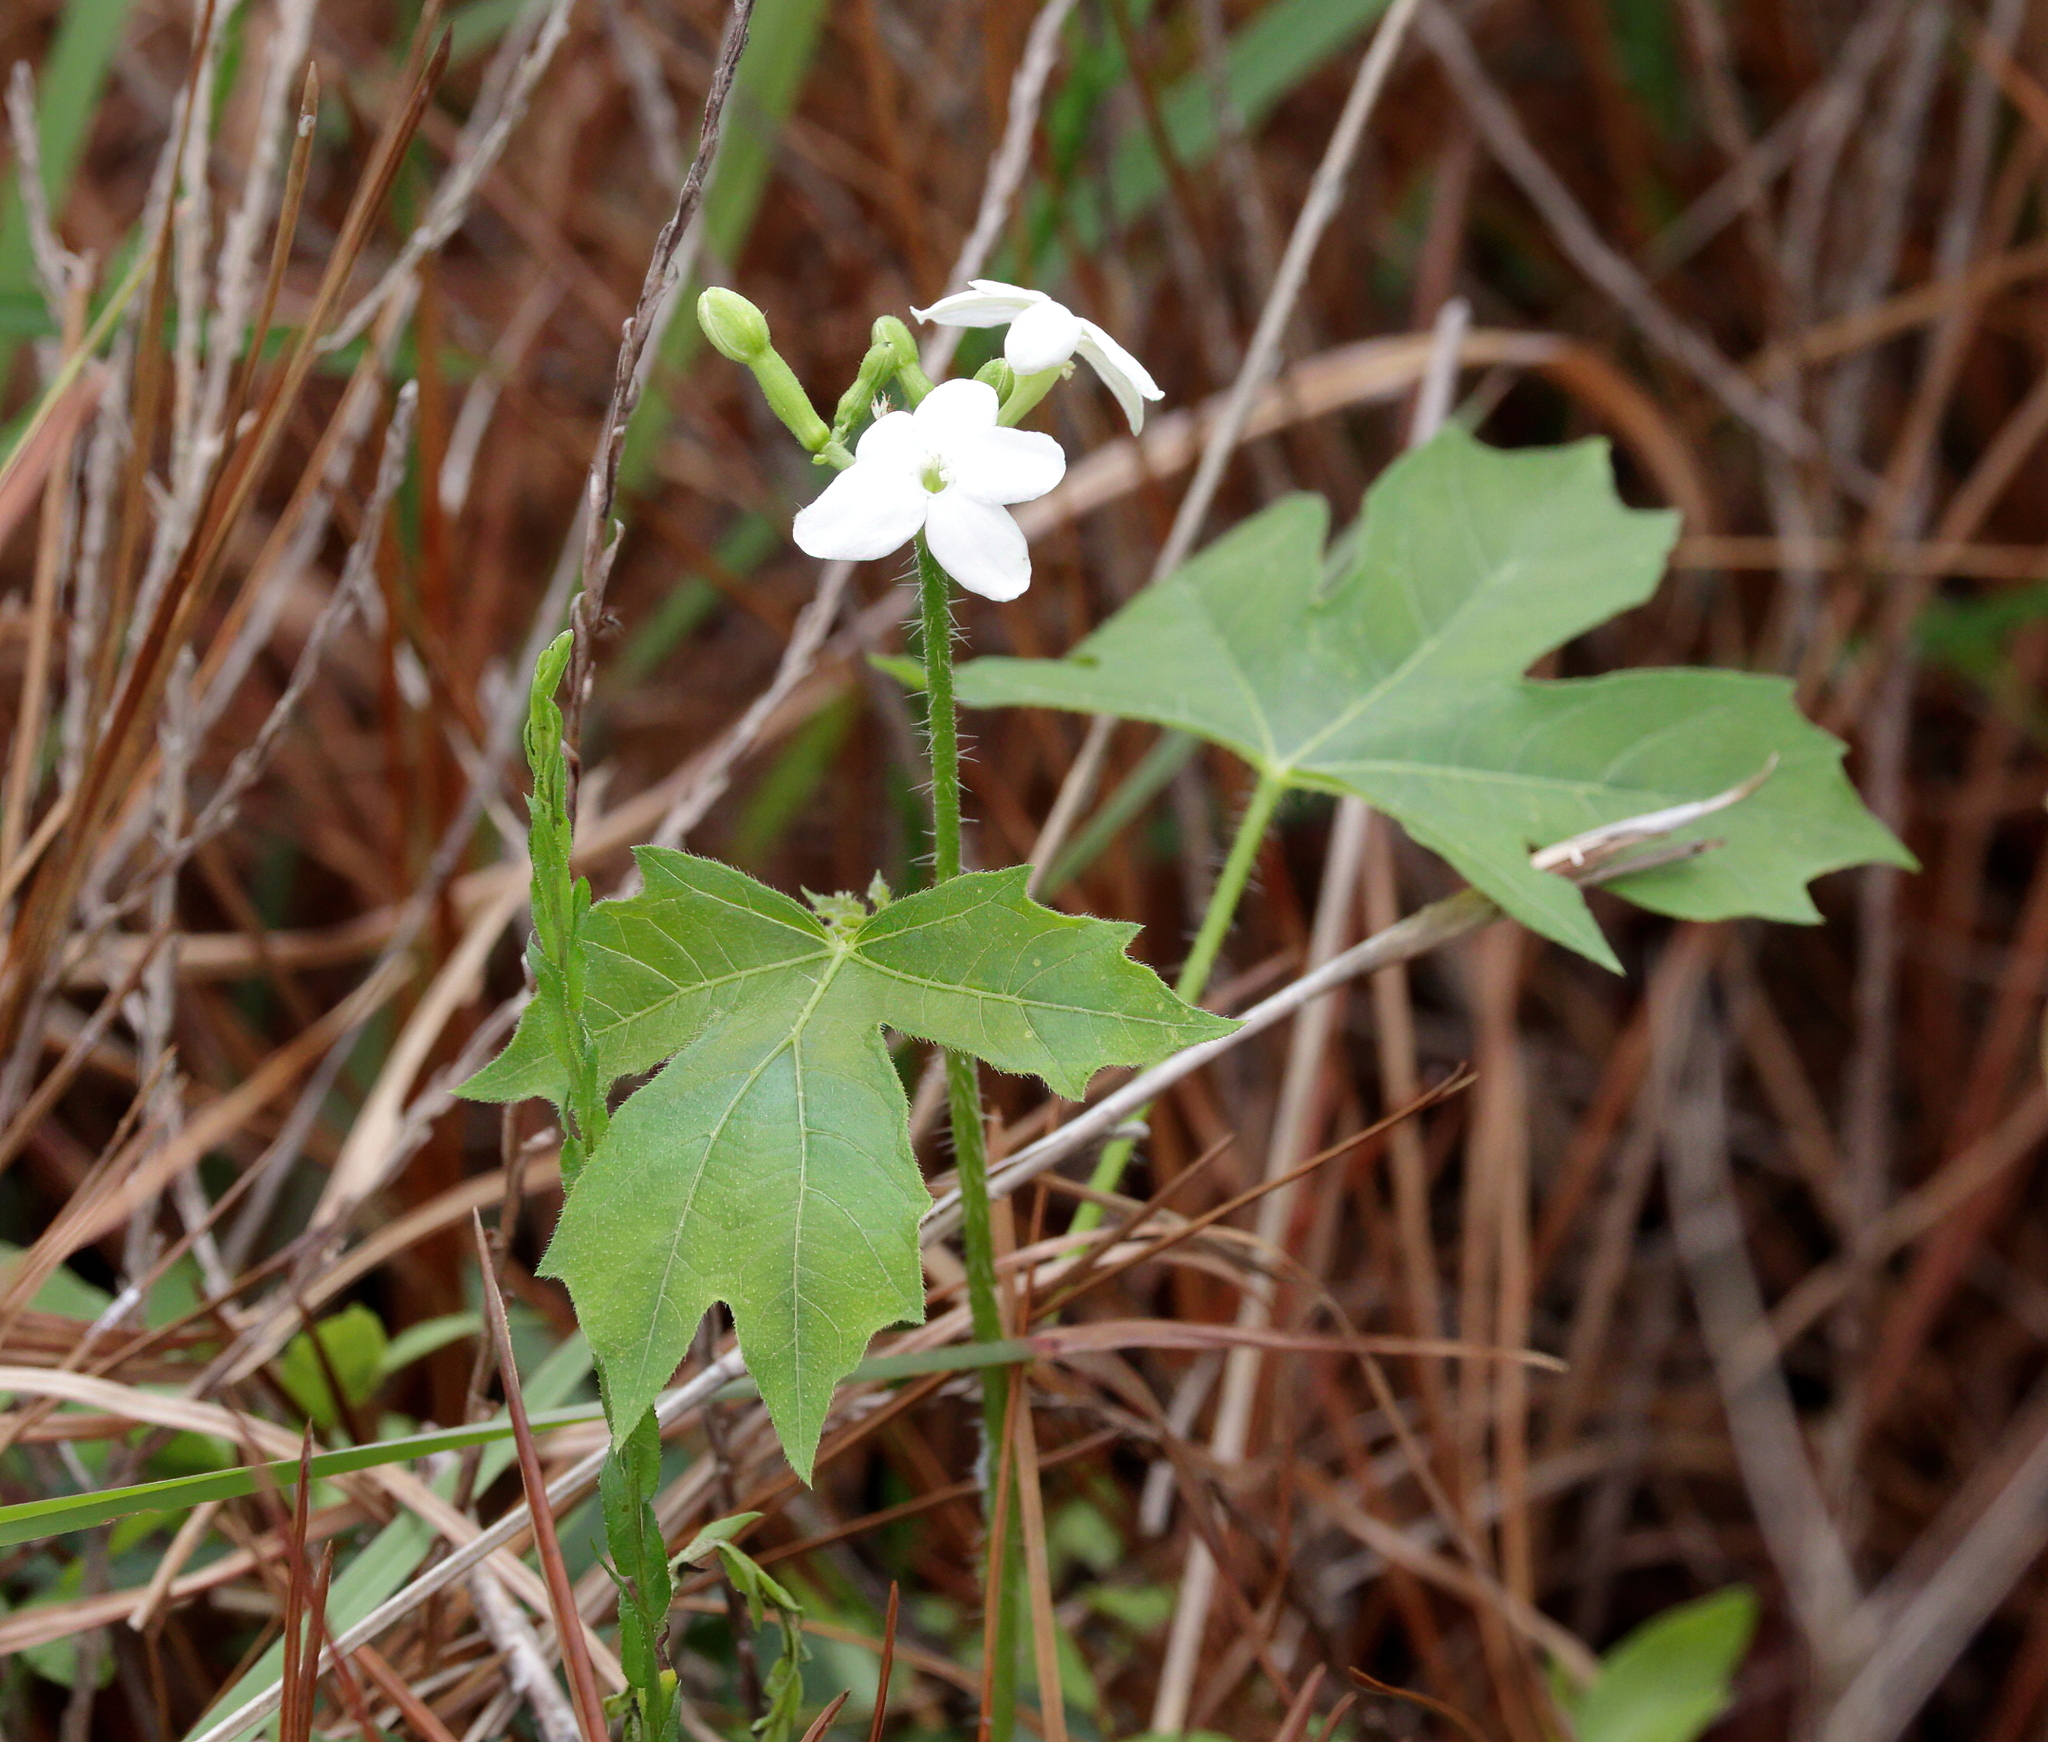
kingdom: Plantae
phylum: Tracheophyta
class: Magnoliopsida
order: Malpighiales
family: Euphorbiaceae
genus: Cnidoscolus
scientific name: Cnidoscolus stimulosus
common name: Bull-nettle
